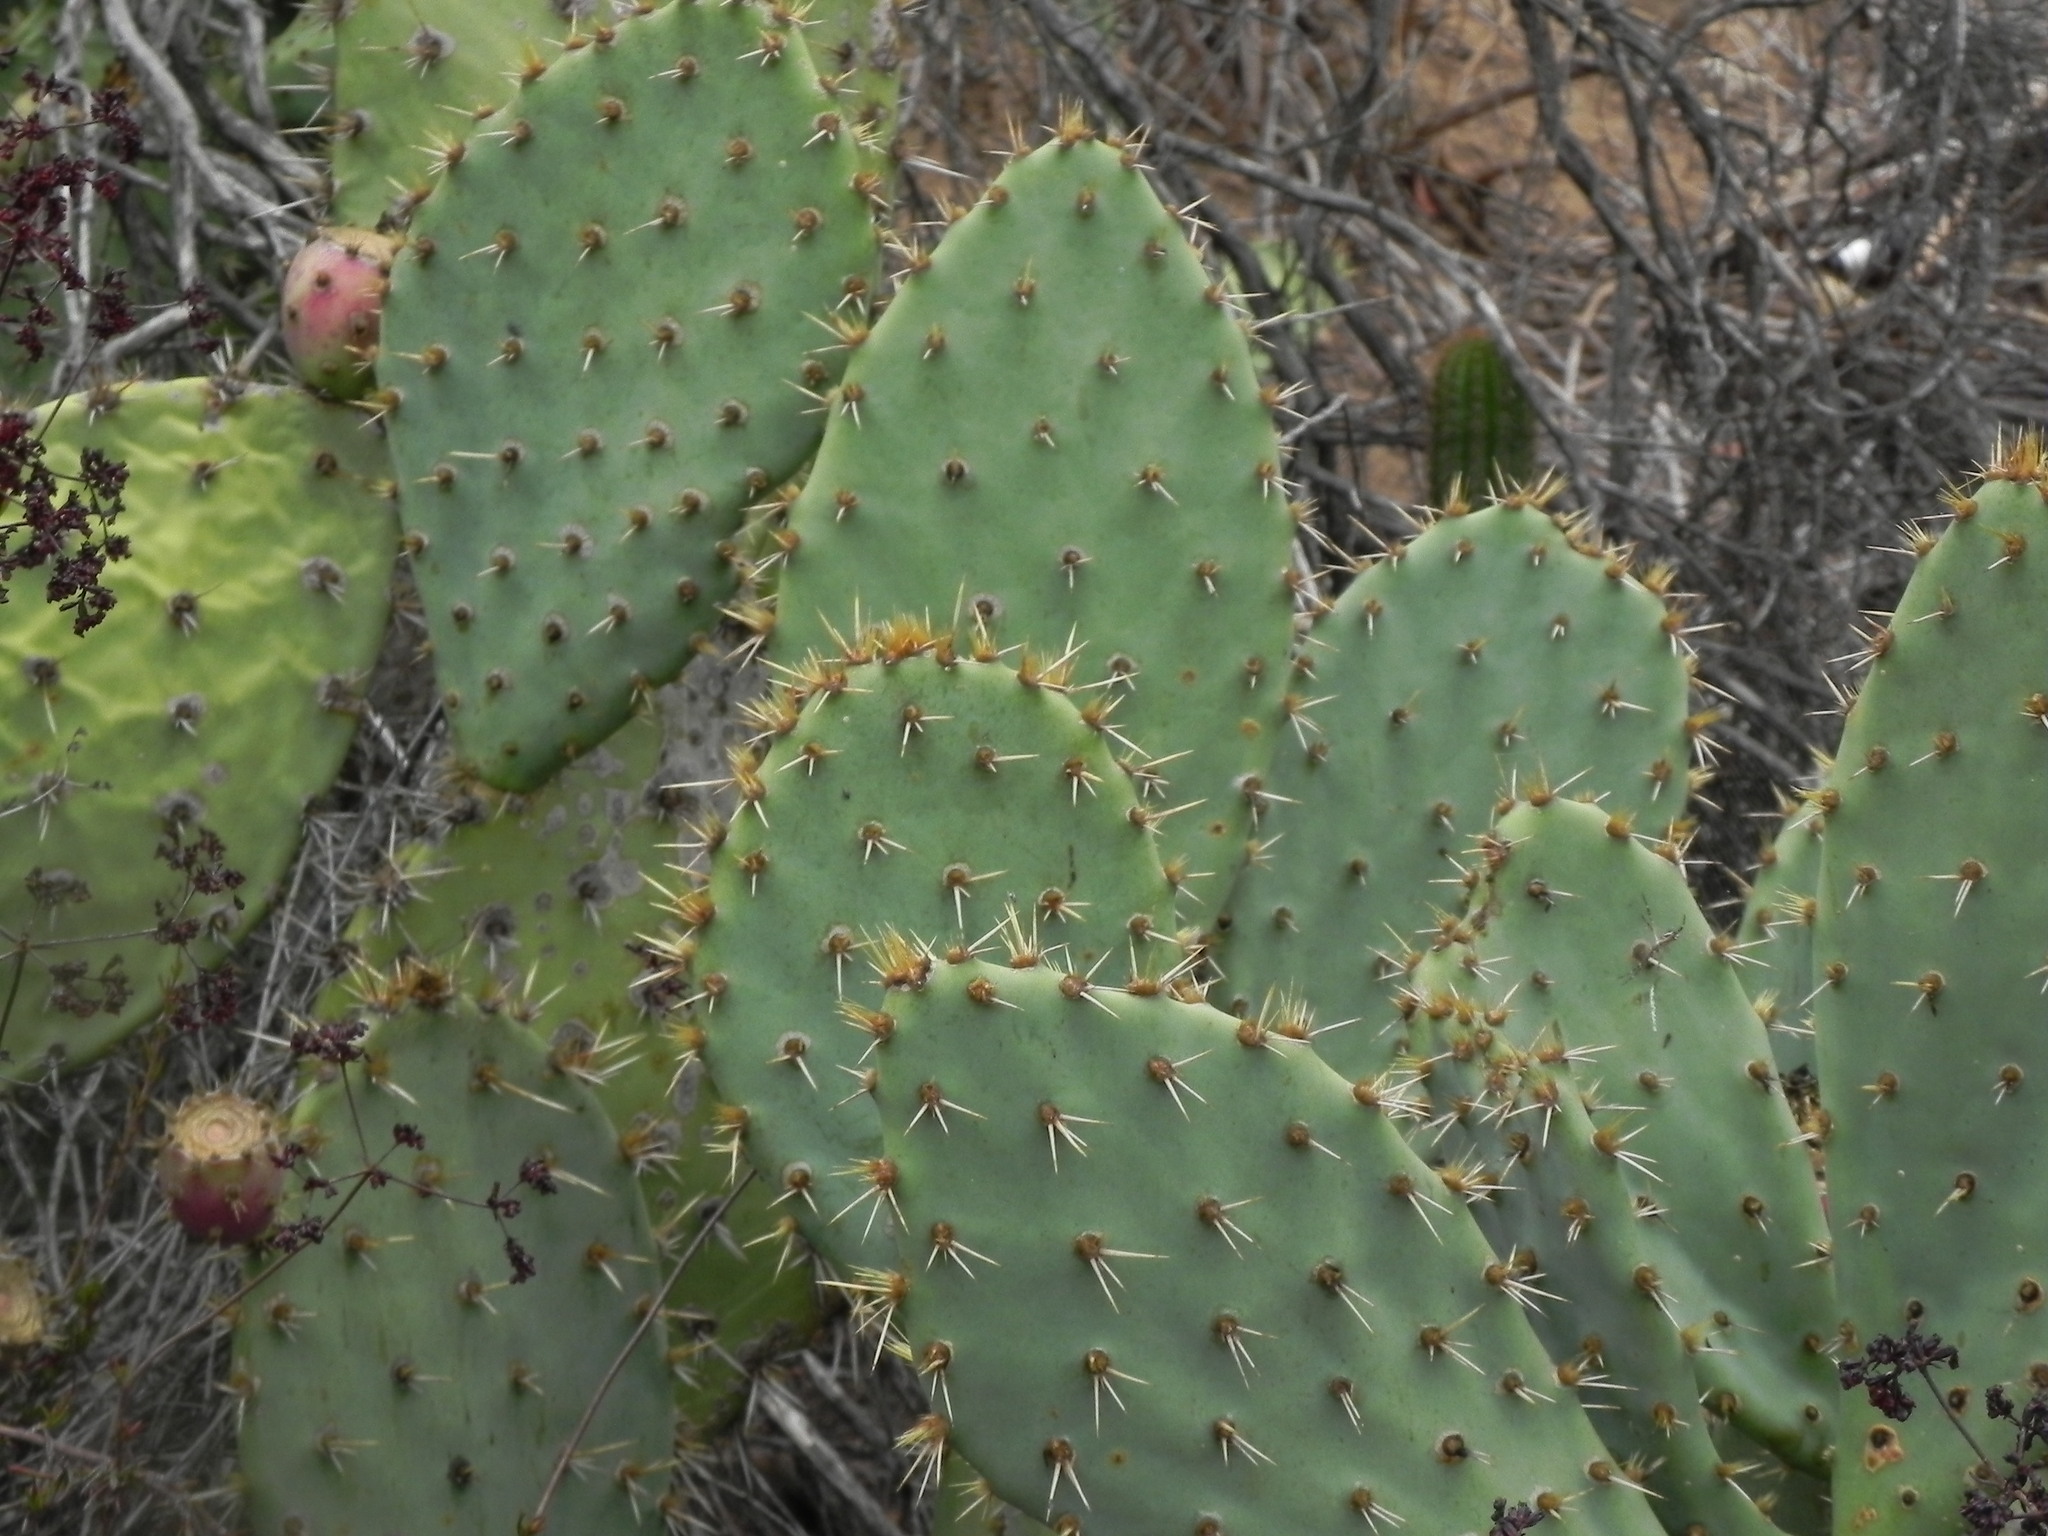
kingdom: Plantae
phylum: Tracheophyta
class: Magnoliopsida
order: Caryophyllales
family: Cactaceae
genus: Opuntia
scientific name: Opuntia littoralis
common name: Coastal prickly-pear
